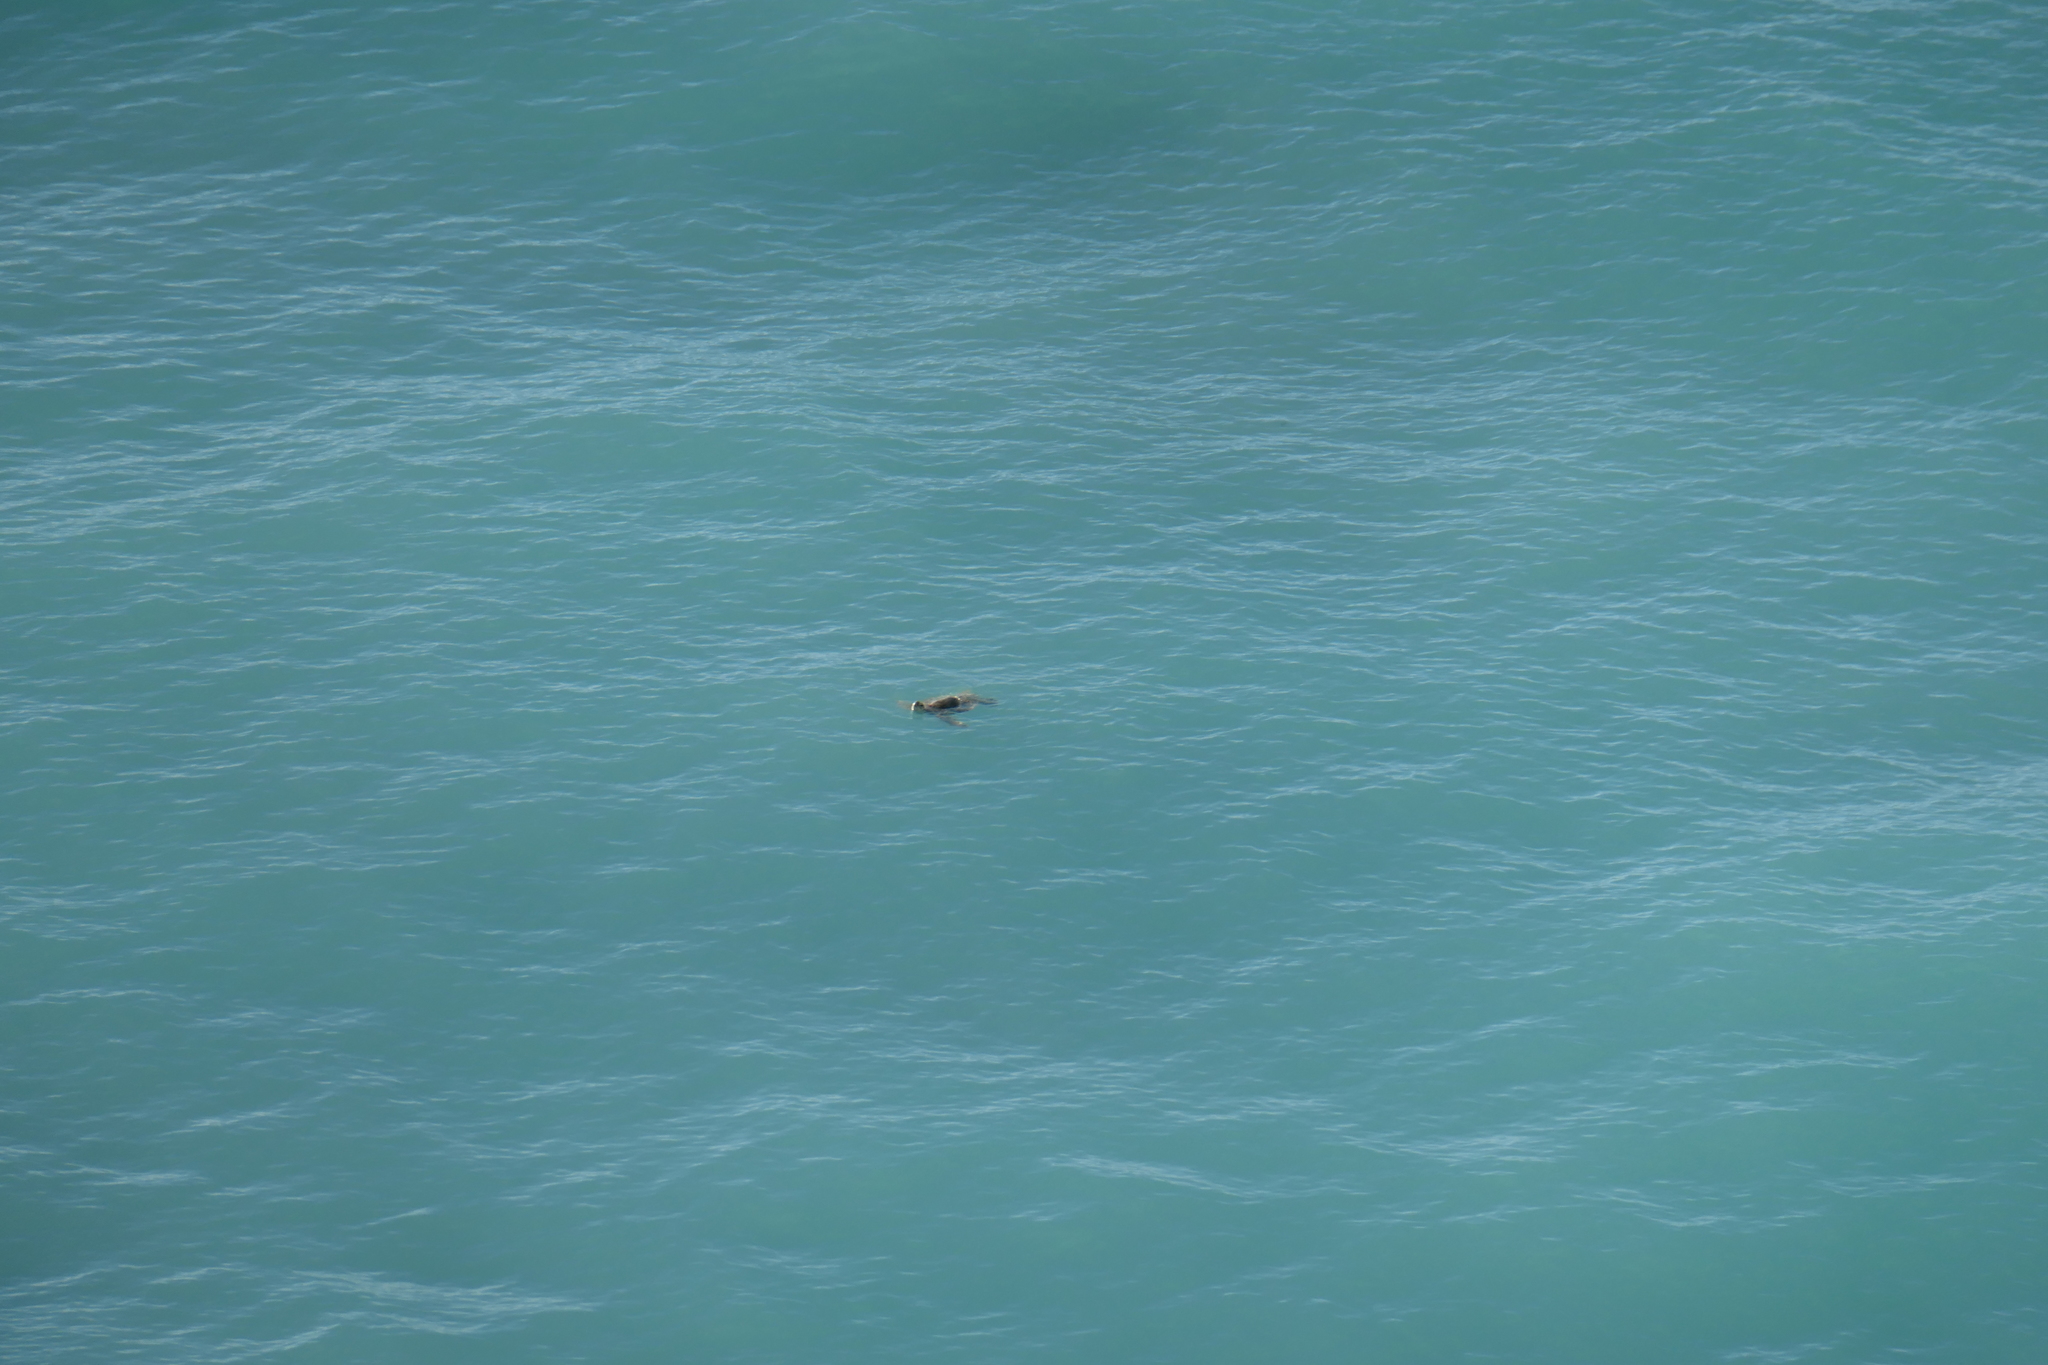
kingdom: Animalia
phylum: Chordata
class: Testudines
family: Cheloniidae
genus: Chelonia
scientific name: Chelonia mydas
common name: Green turtle
